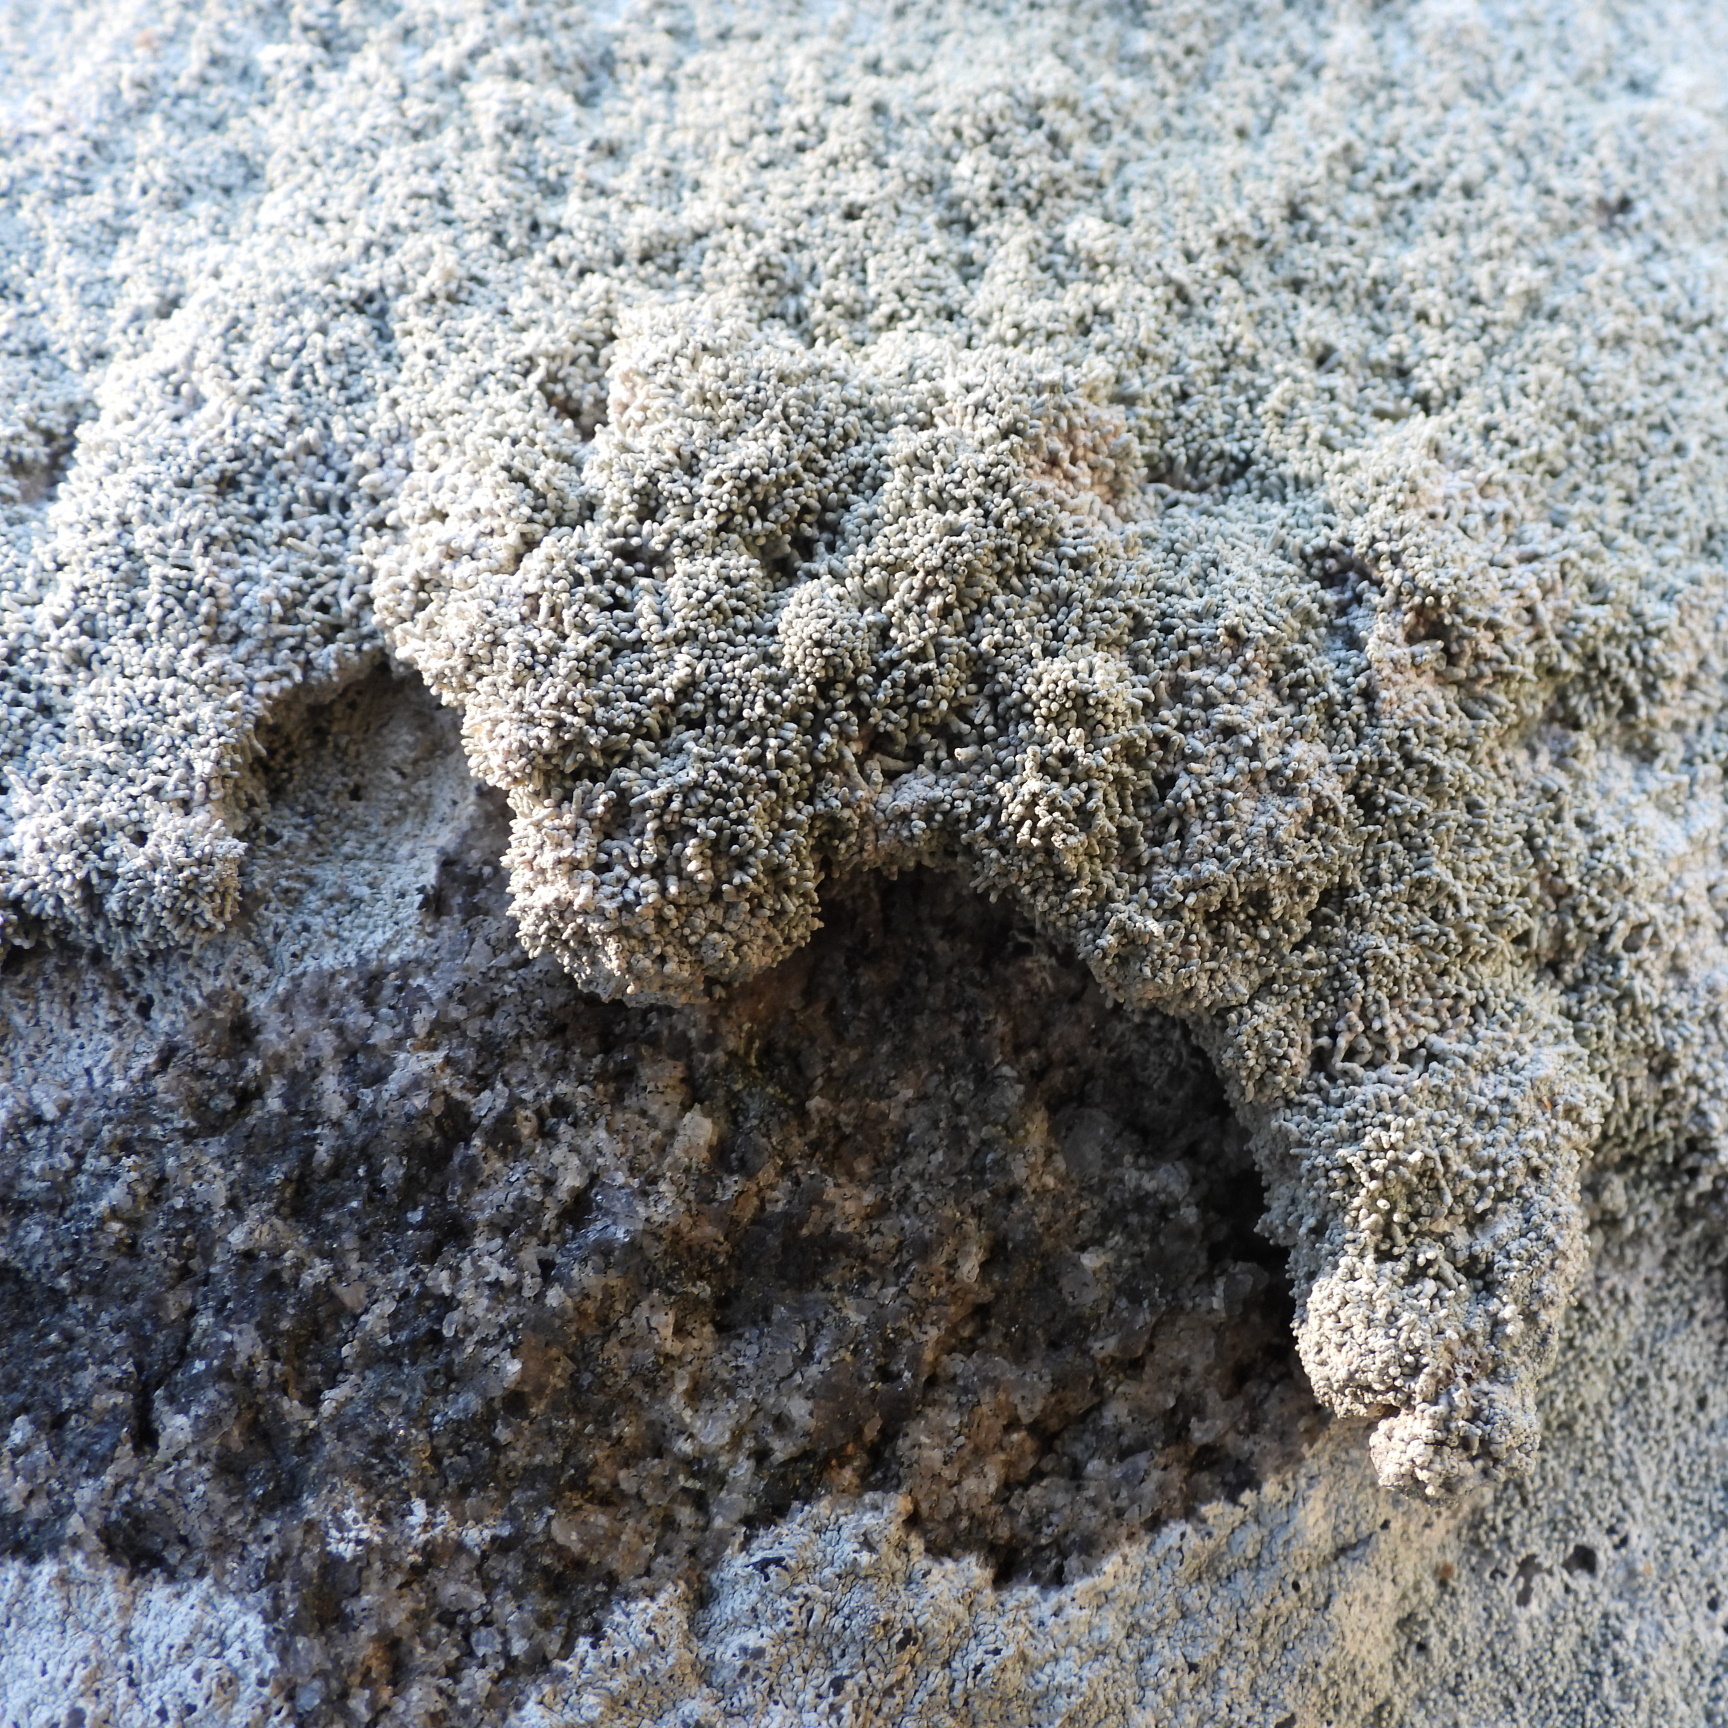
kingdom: Fungi
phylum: Ascomycota
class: Lecanoromycetes
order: Pertusariales
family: Pertusariaceae
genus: Lepra
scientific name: Lepra corallina
